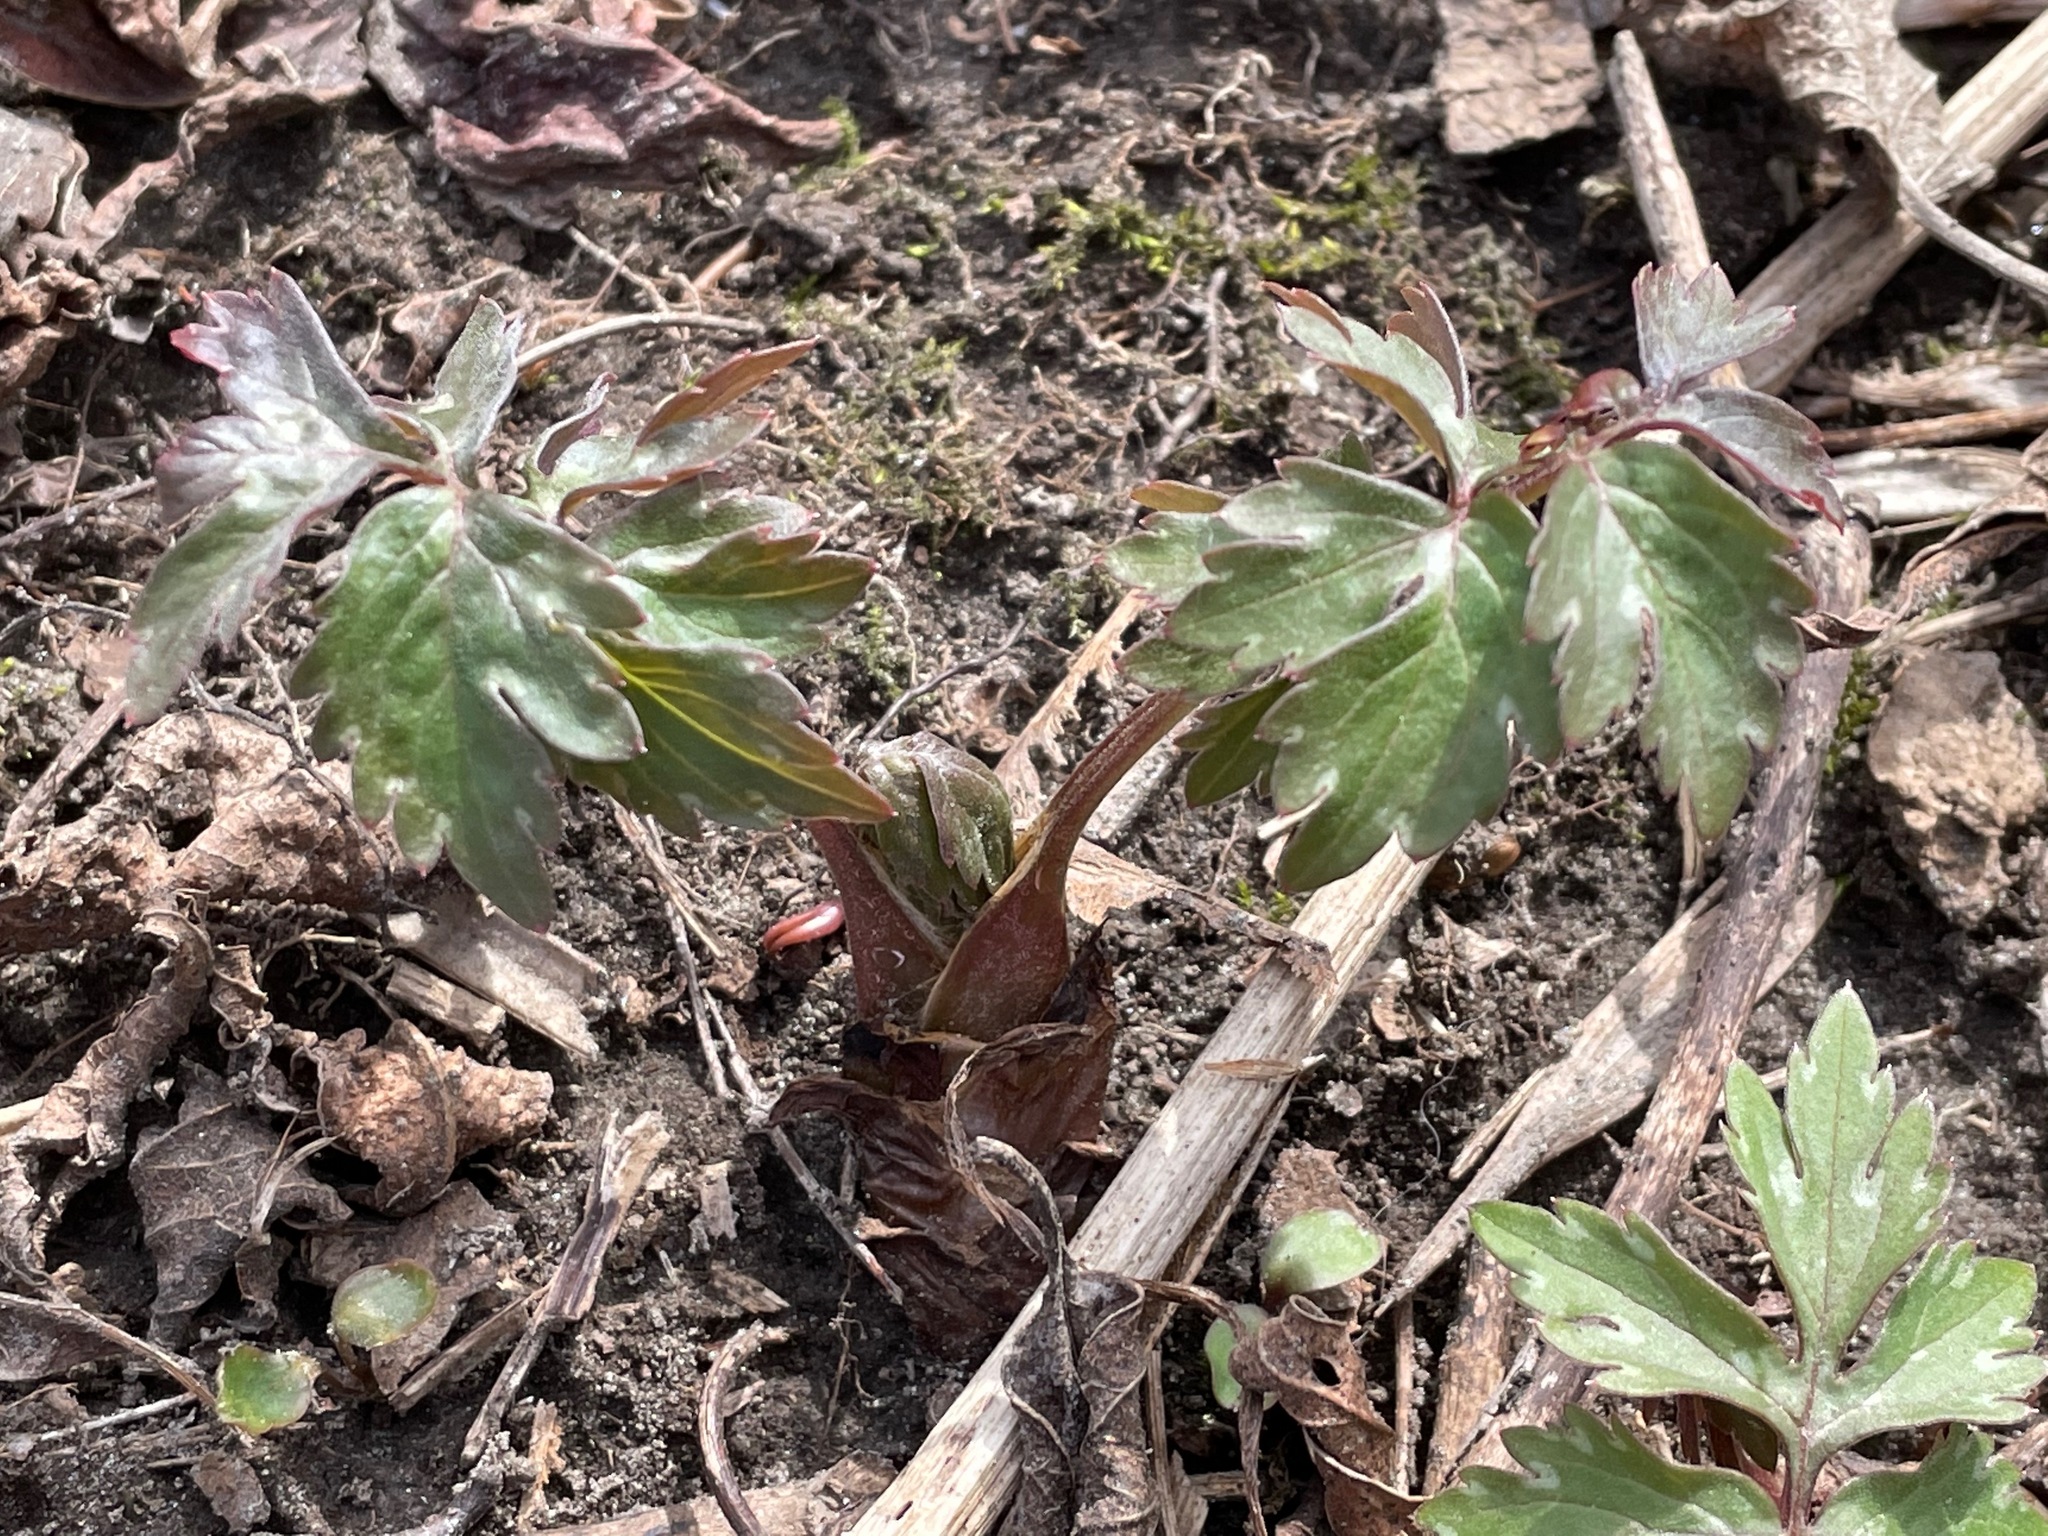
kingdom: Plantae
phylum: Tracheophyta
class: Magnoliopsida
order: Boraginales
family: Hydrophyllaceae
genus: Hydrophyllum
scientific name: Hydrophyllum virginianum
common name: Virginia waterleaf
